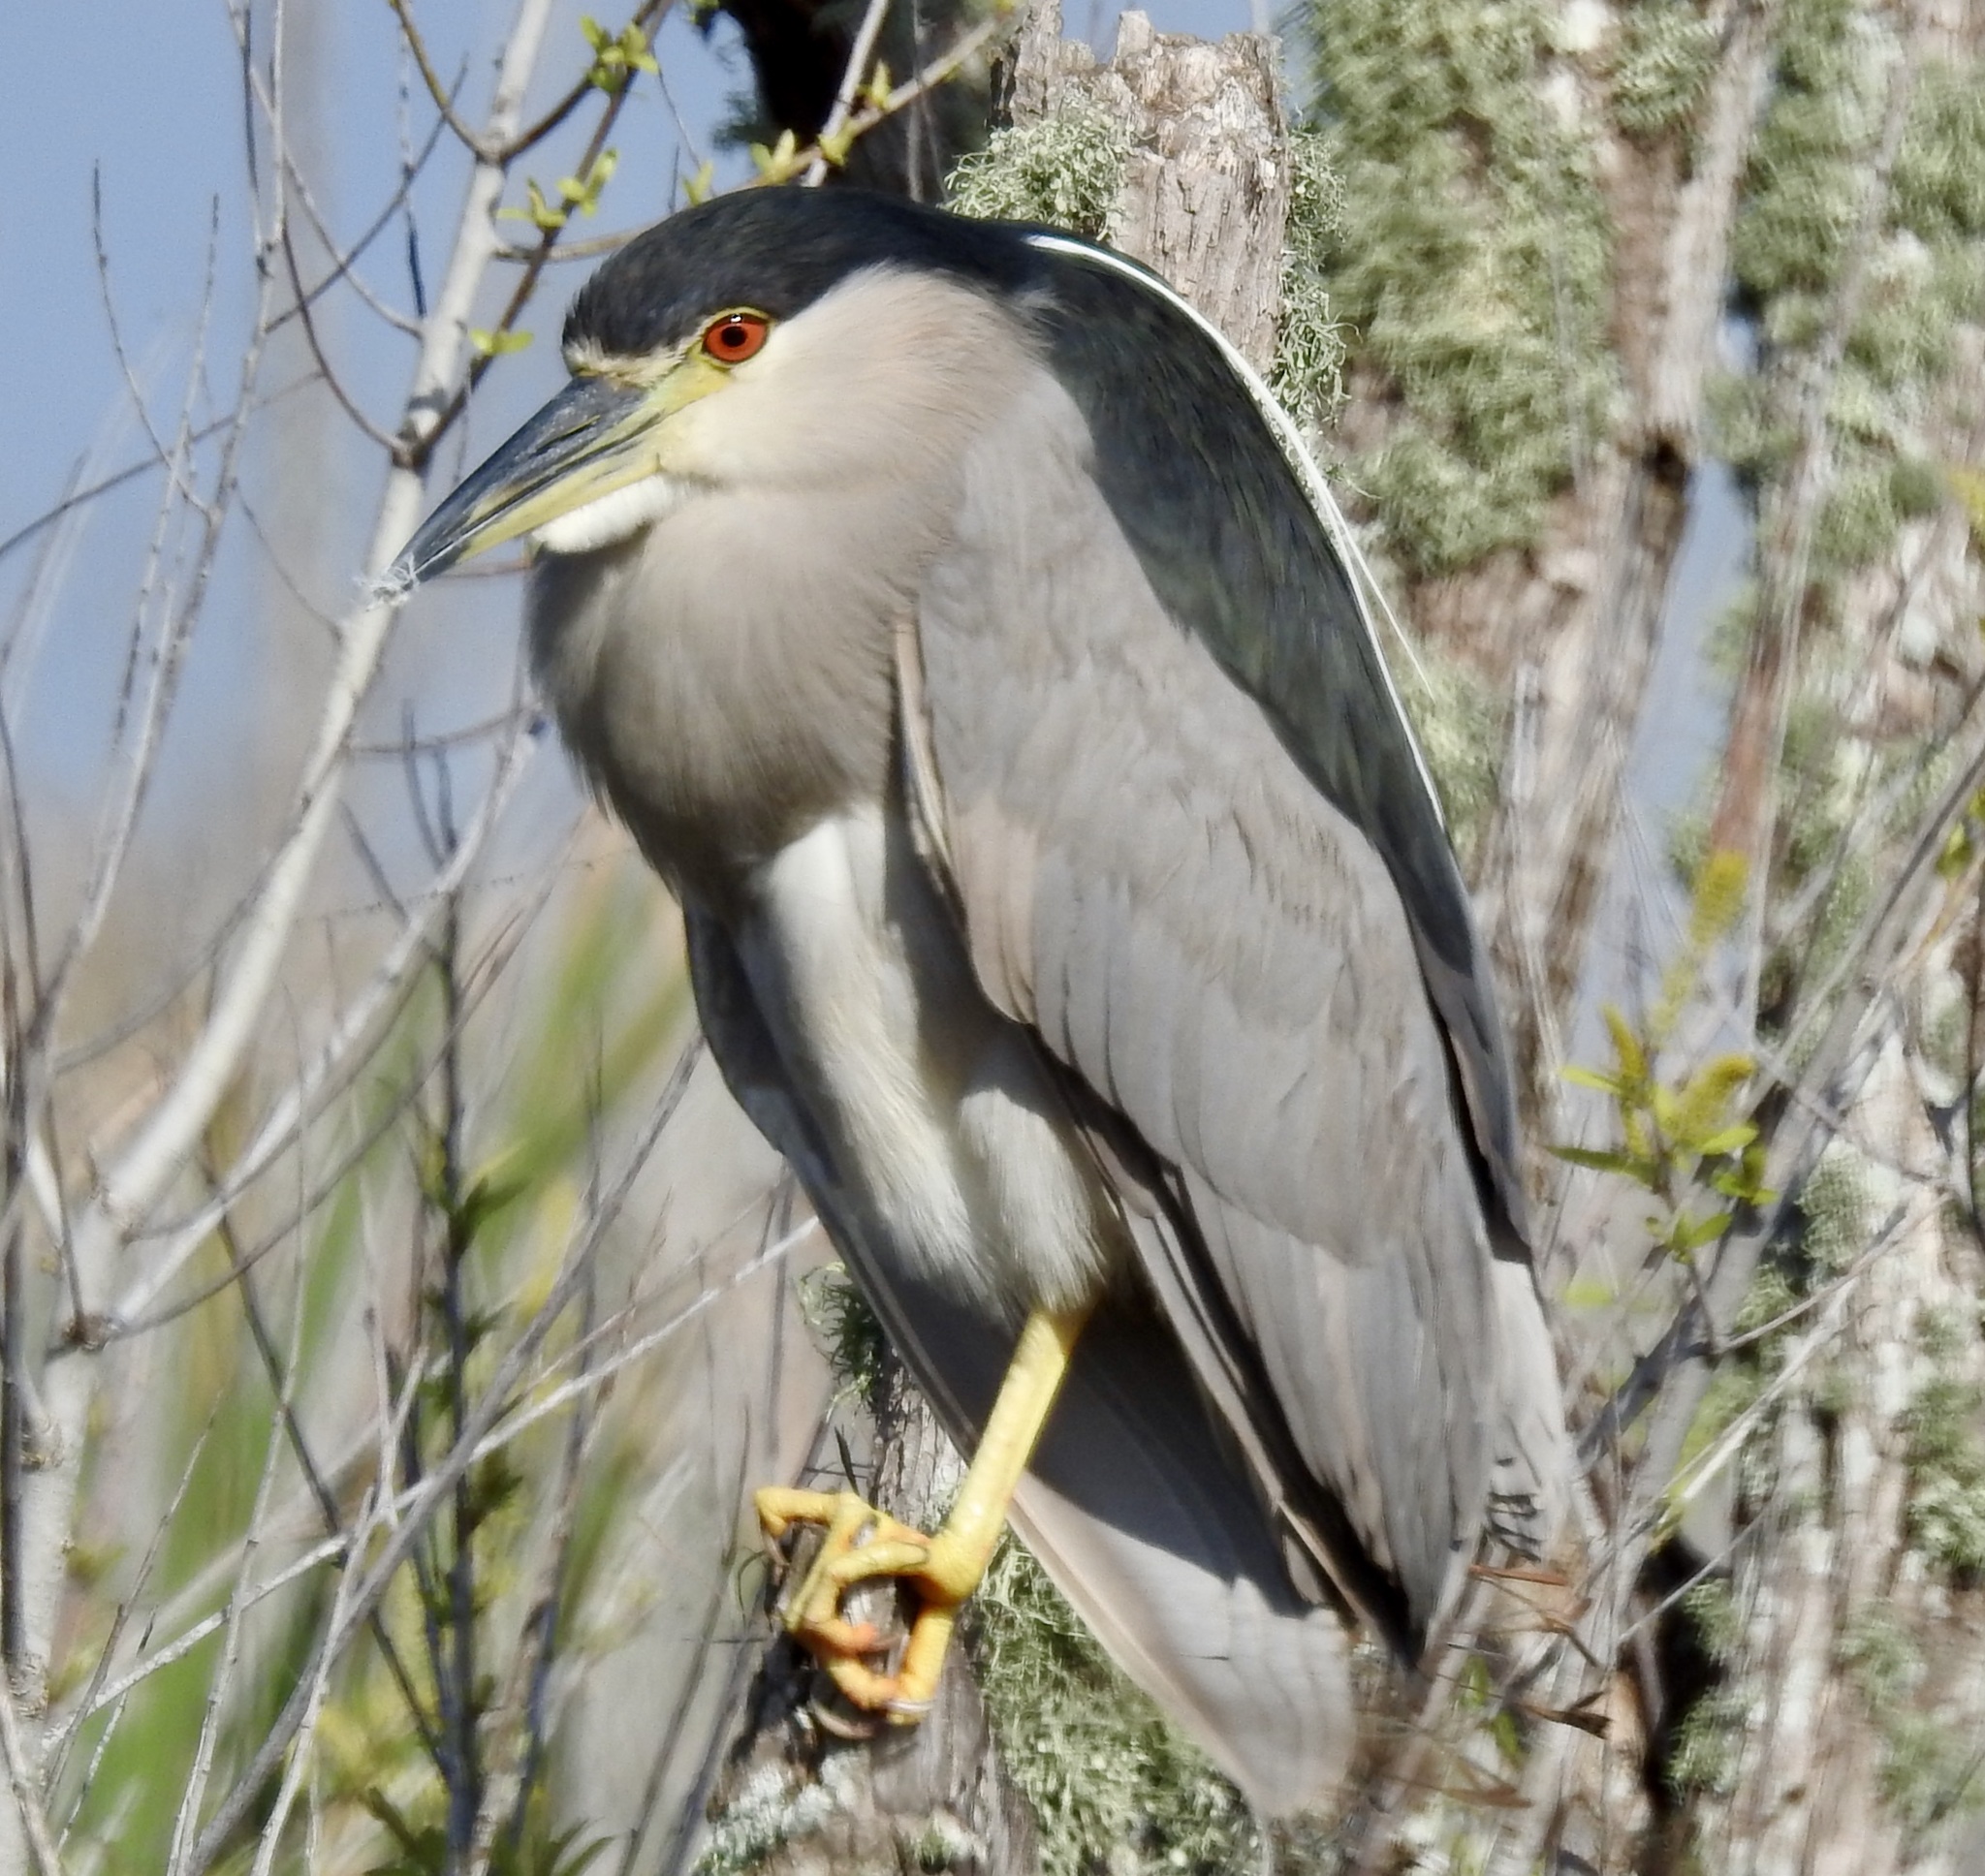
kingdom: Animalia
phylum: Chordata
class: Aves
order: Pelecaniformes
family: Ardeidae
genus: Nycticorax
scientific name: Nycticorax nycticorax
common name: Black-crowned night heron
